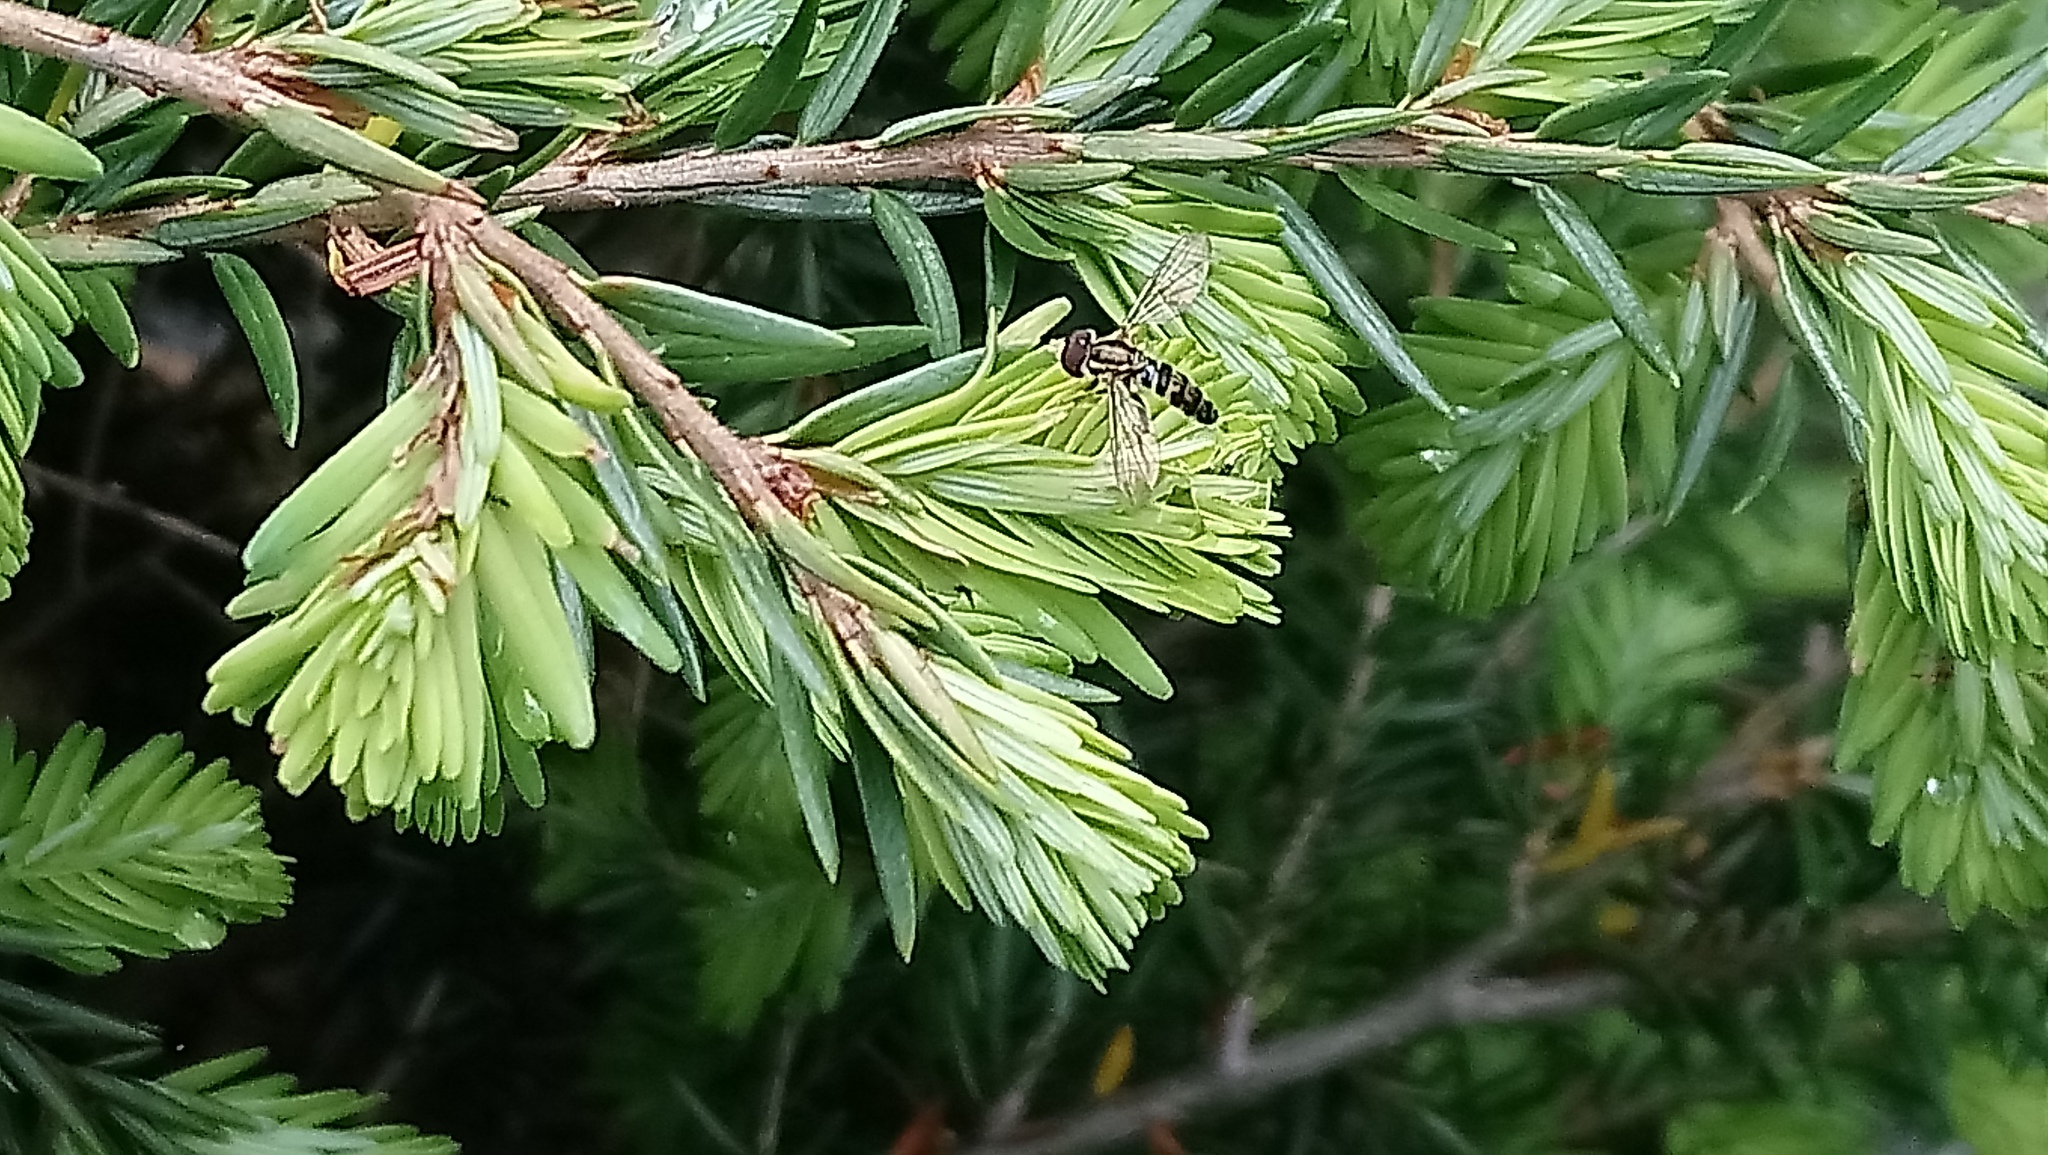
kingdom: Animalia
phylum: Arthropoda
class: Insecta
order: Diptera
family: Syrphidae
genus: Toxomerus
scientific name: Toxomerus geminatus
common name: Eastern calligrapher
